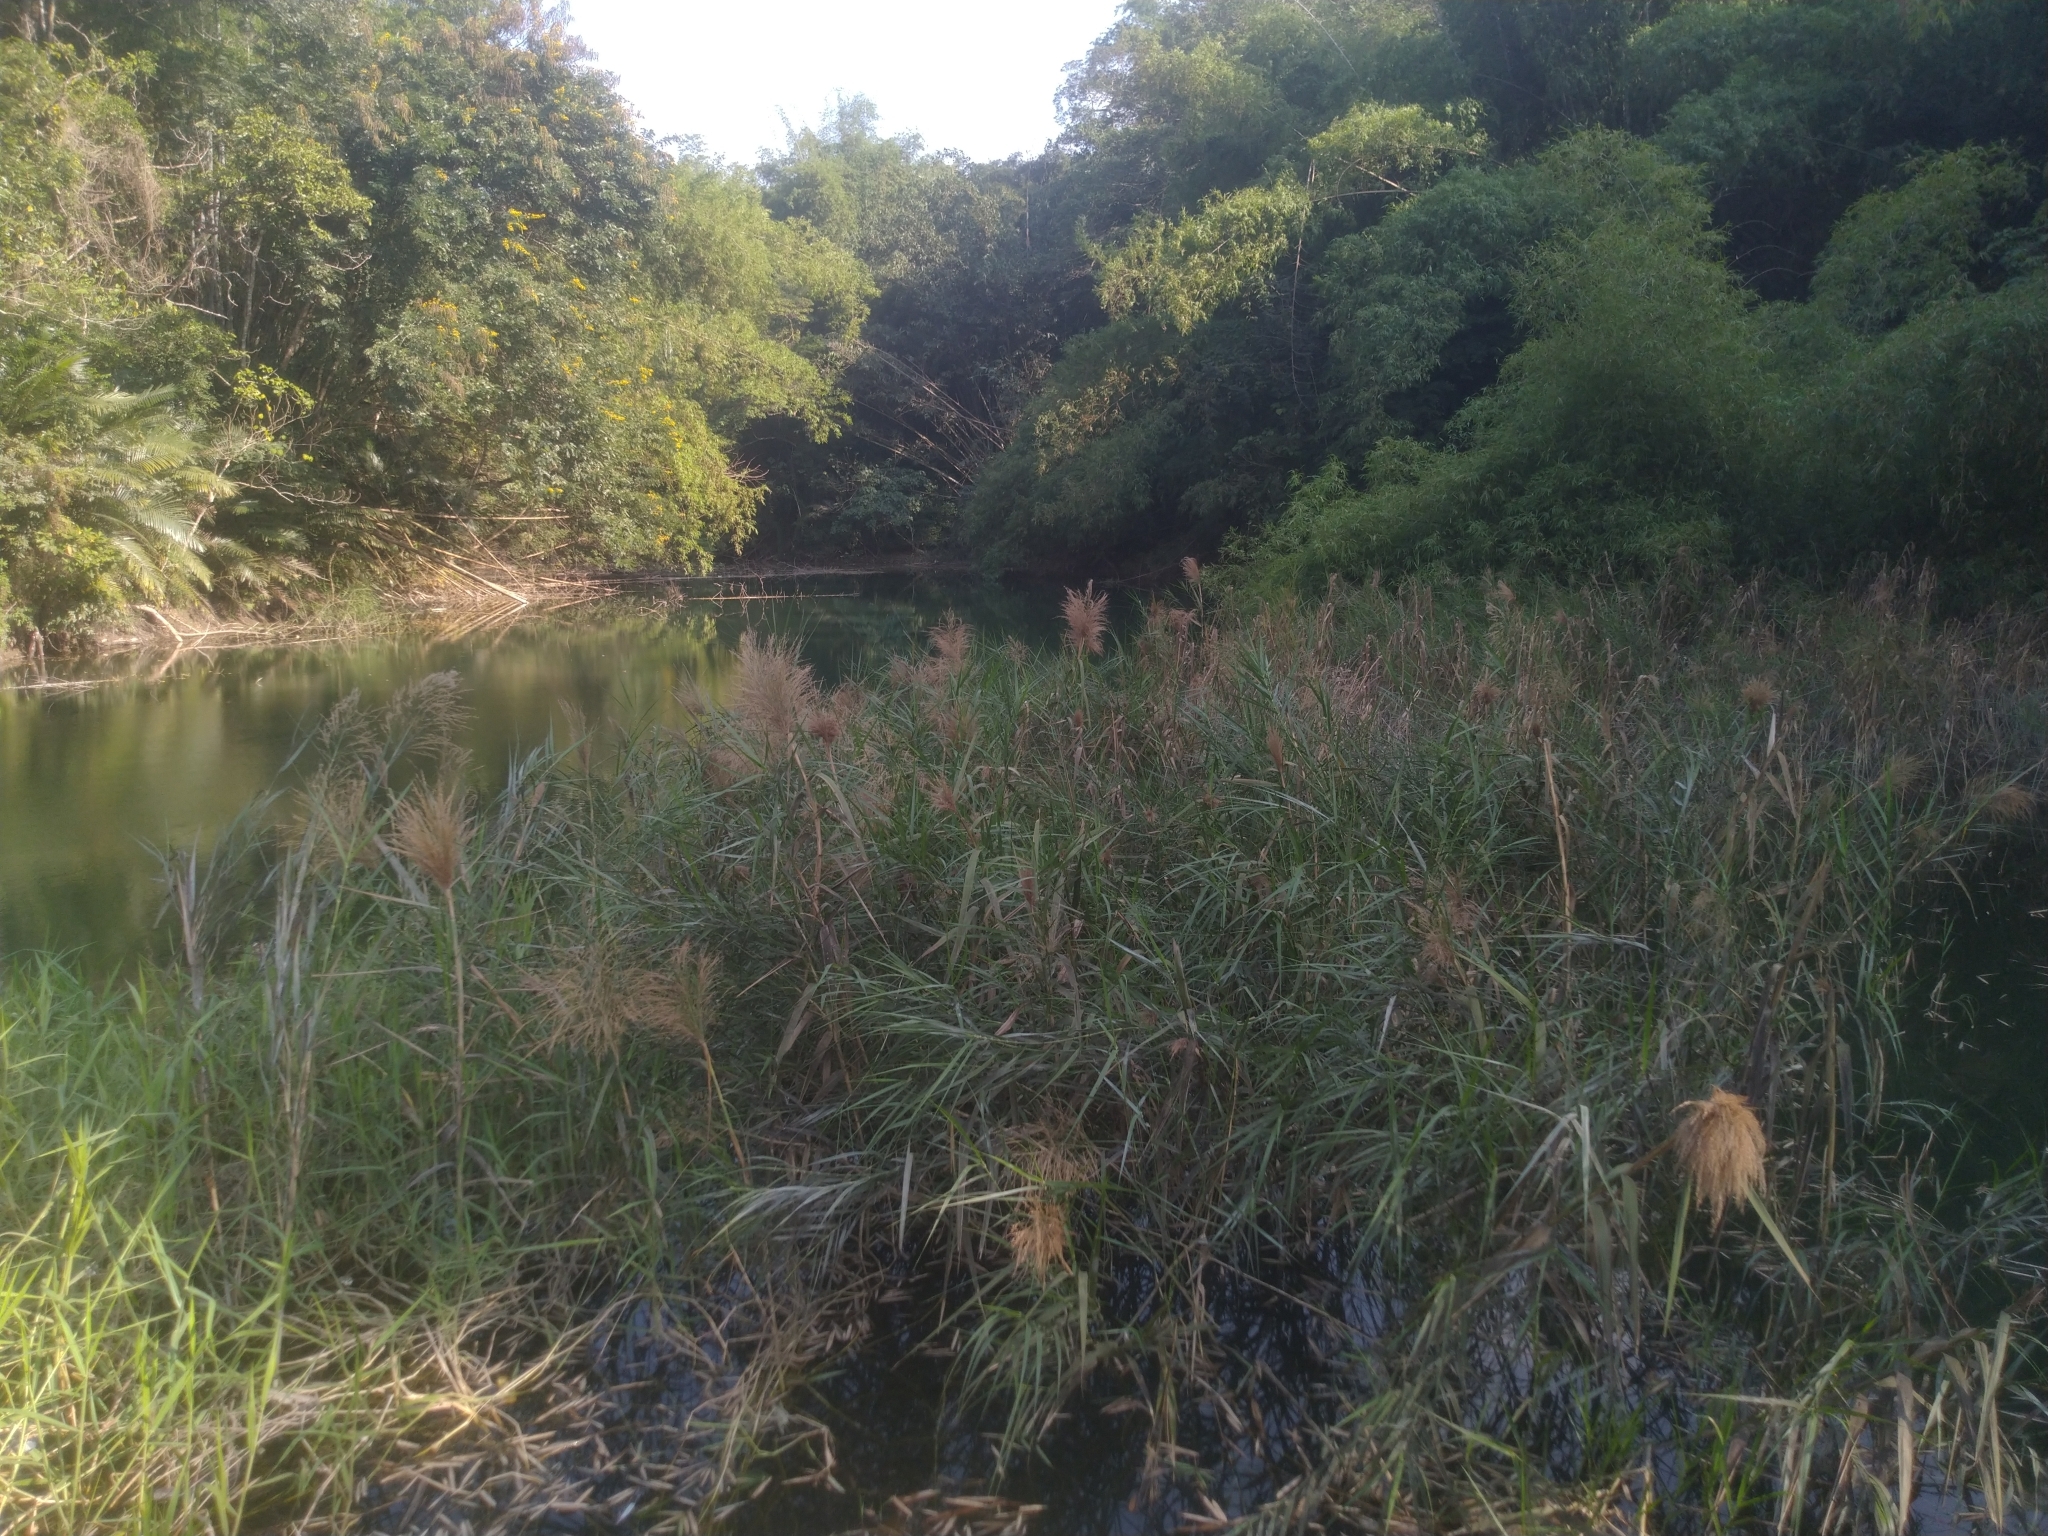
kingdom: Plantae
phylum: Tracheophyta
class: Liliopsida
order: Poales
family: Poaceae
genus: Phragmites
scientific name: Phragmites karka
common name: Tropical reed
